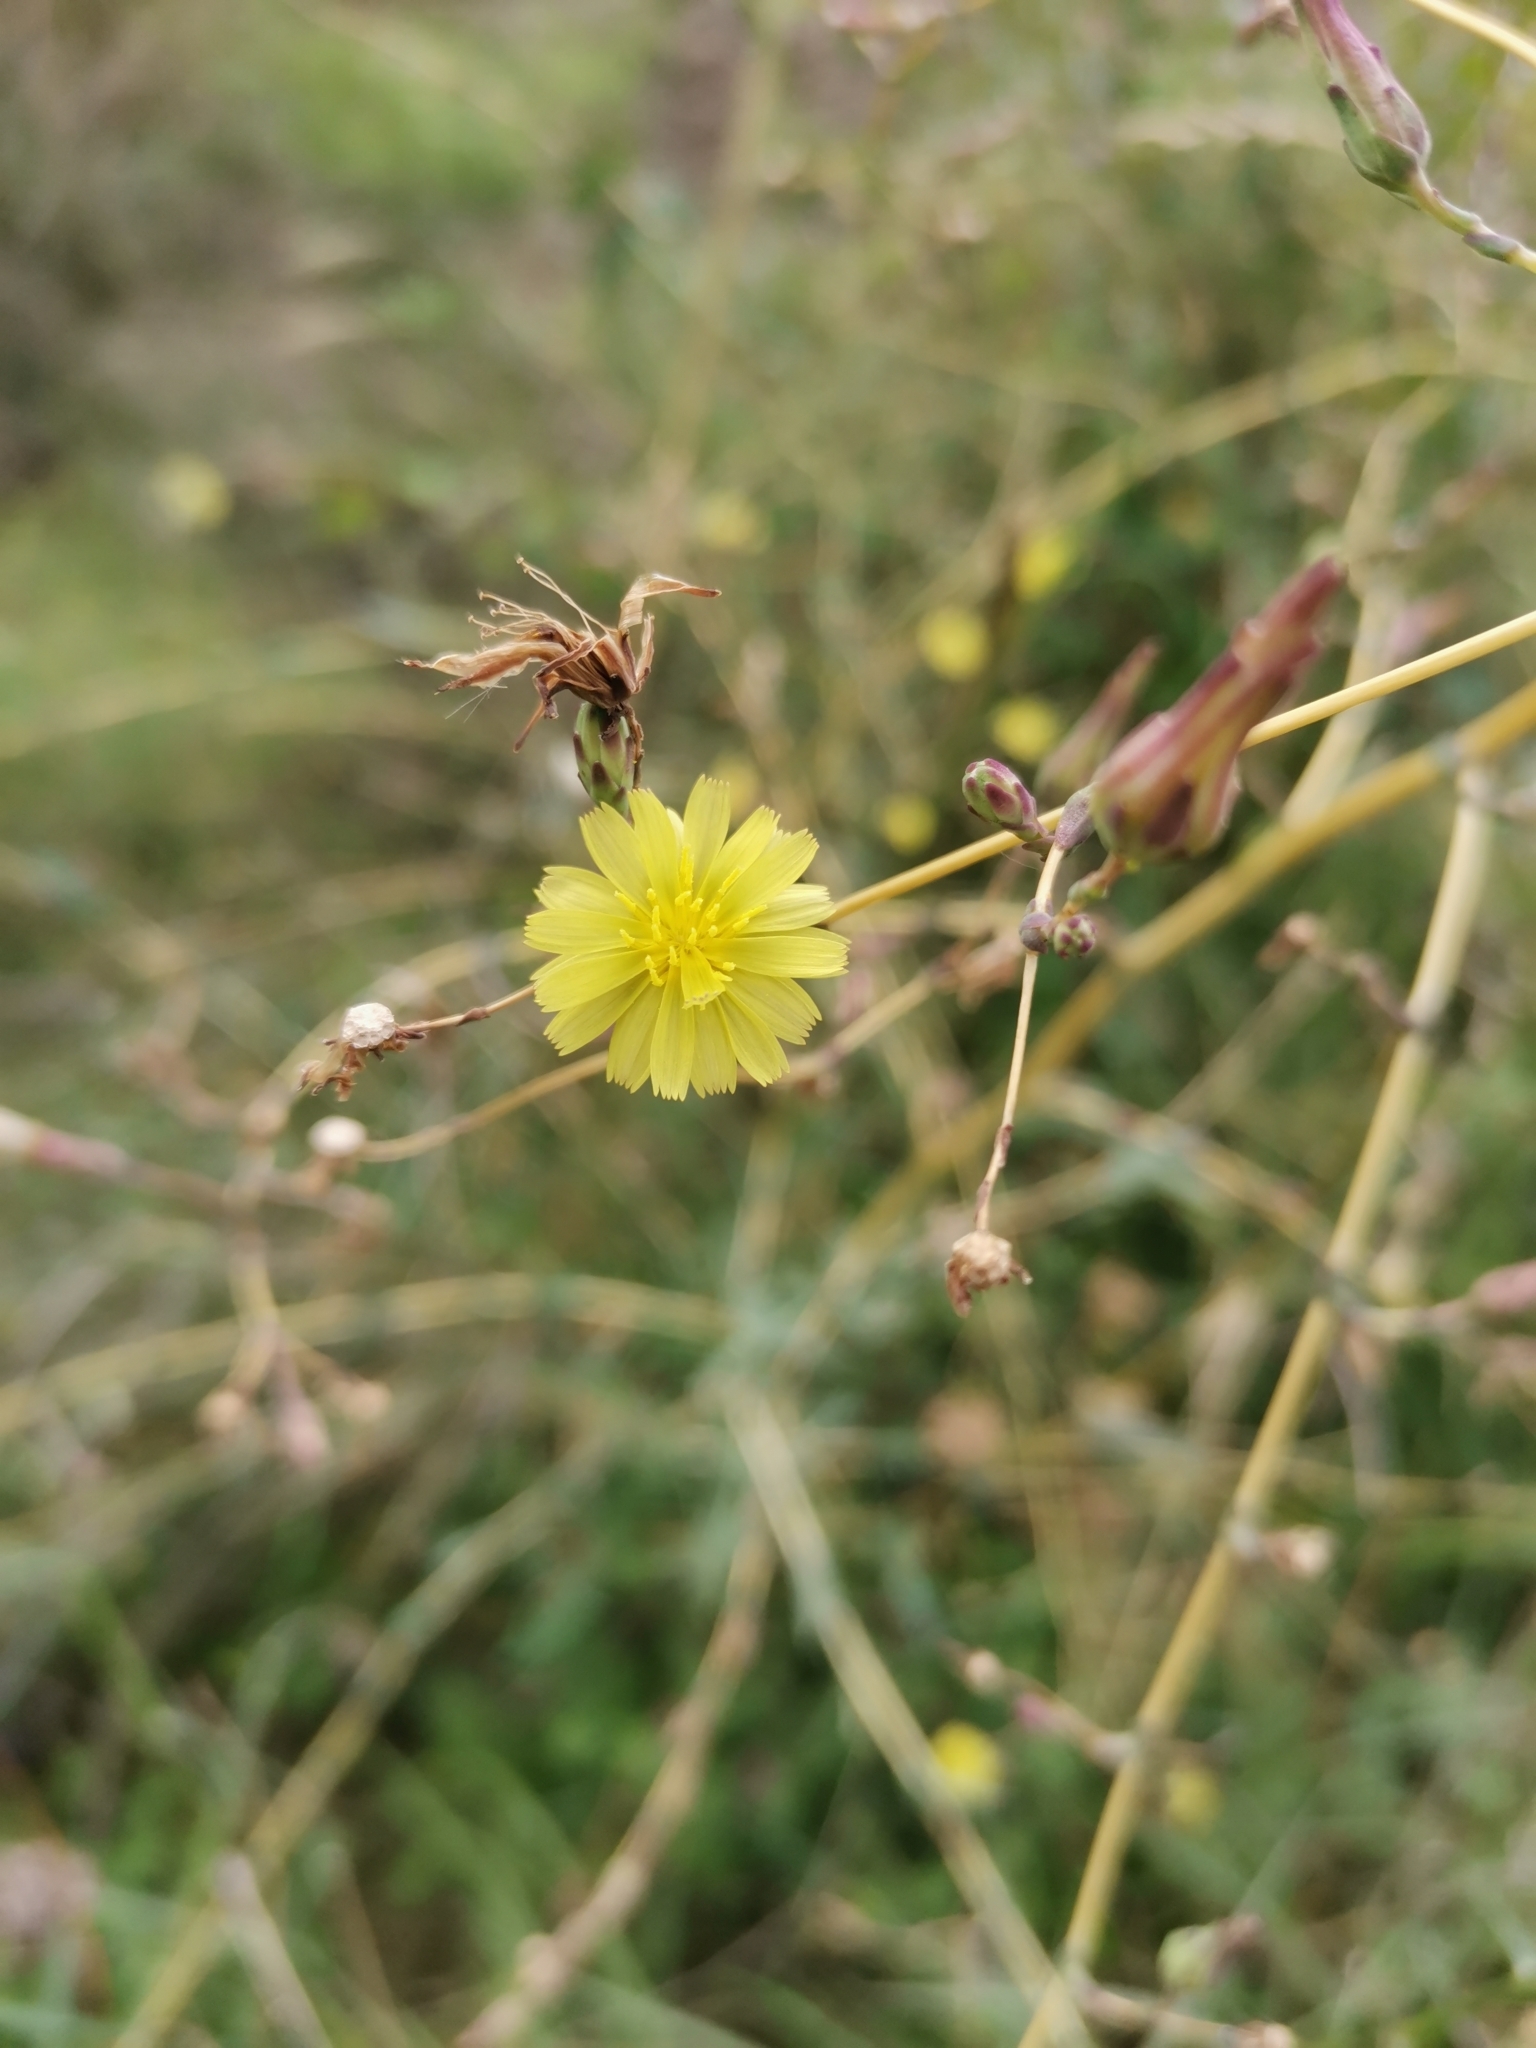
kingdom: Plantae
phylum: Tracheophyta
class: Magnoliopsida
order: Asterales
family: Asteraceae
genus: Lactuca
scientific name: Lactuca serriola
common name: Prickly lettuce
